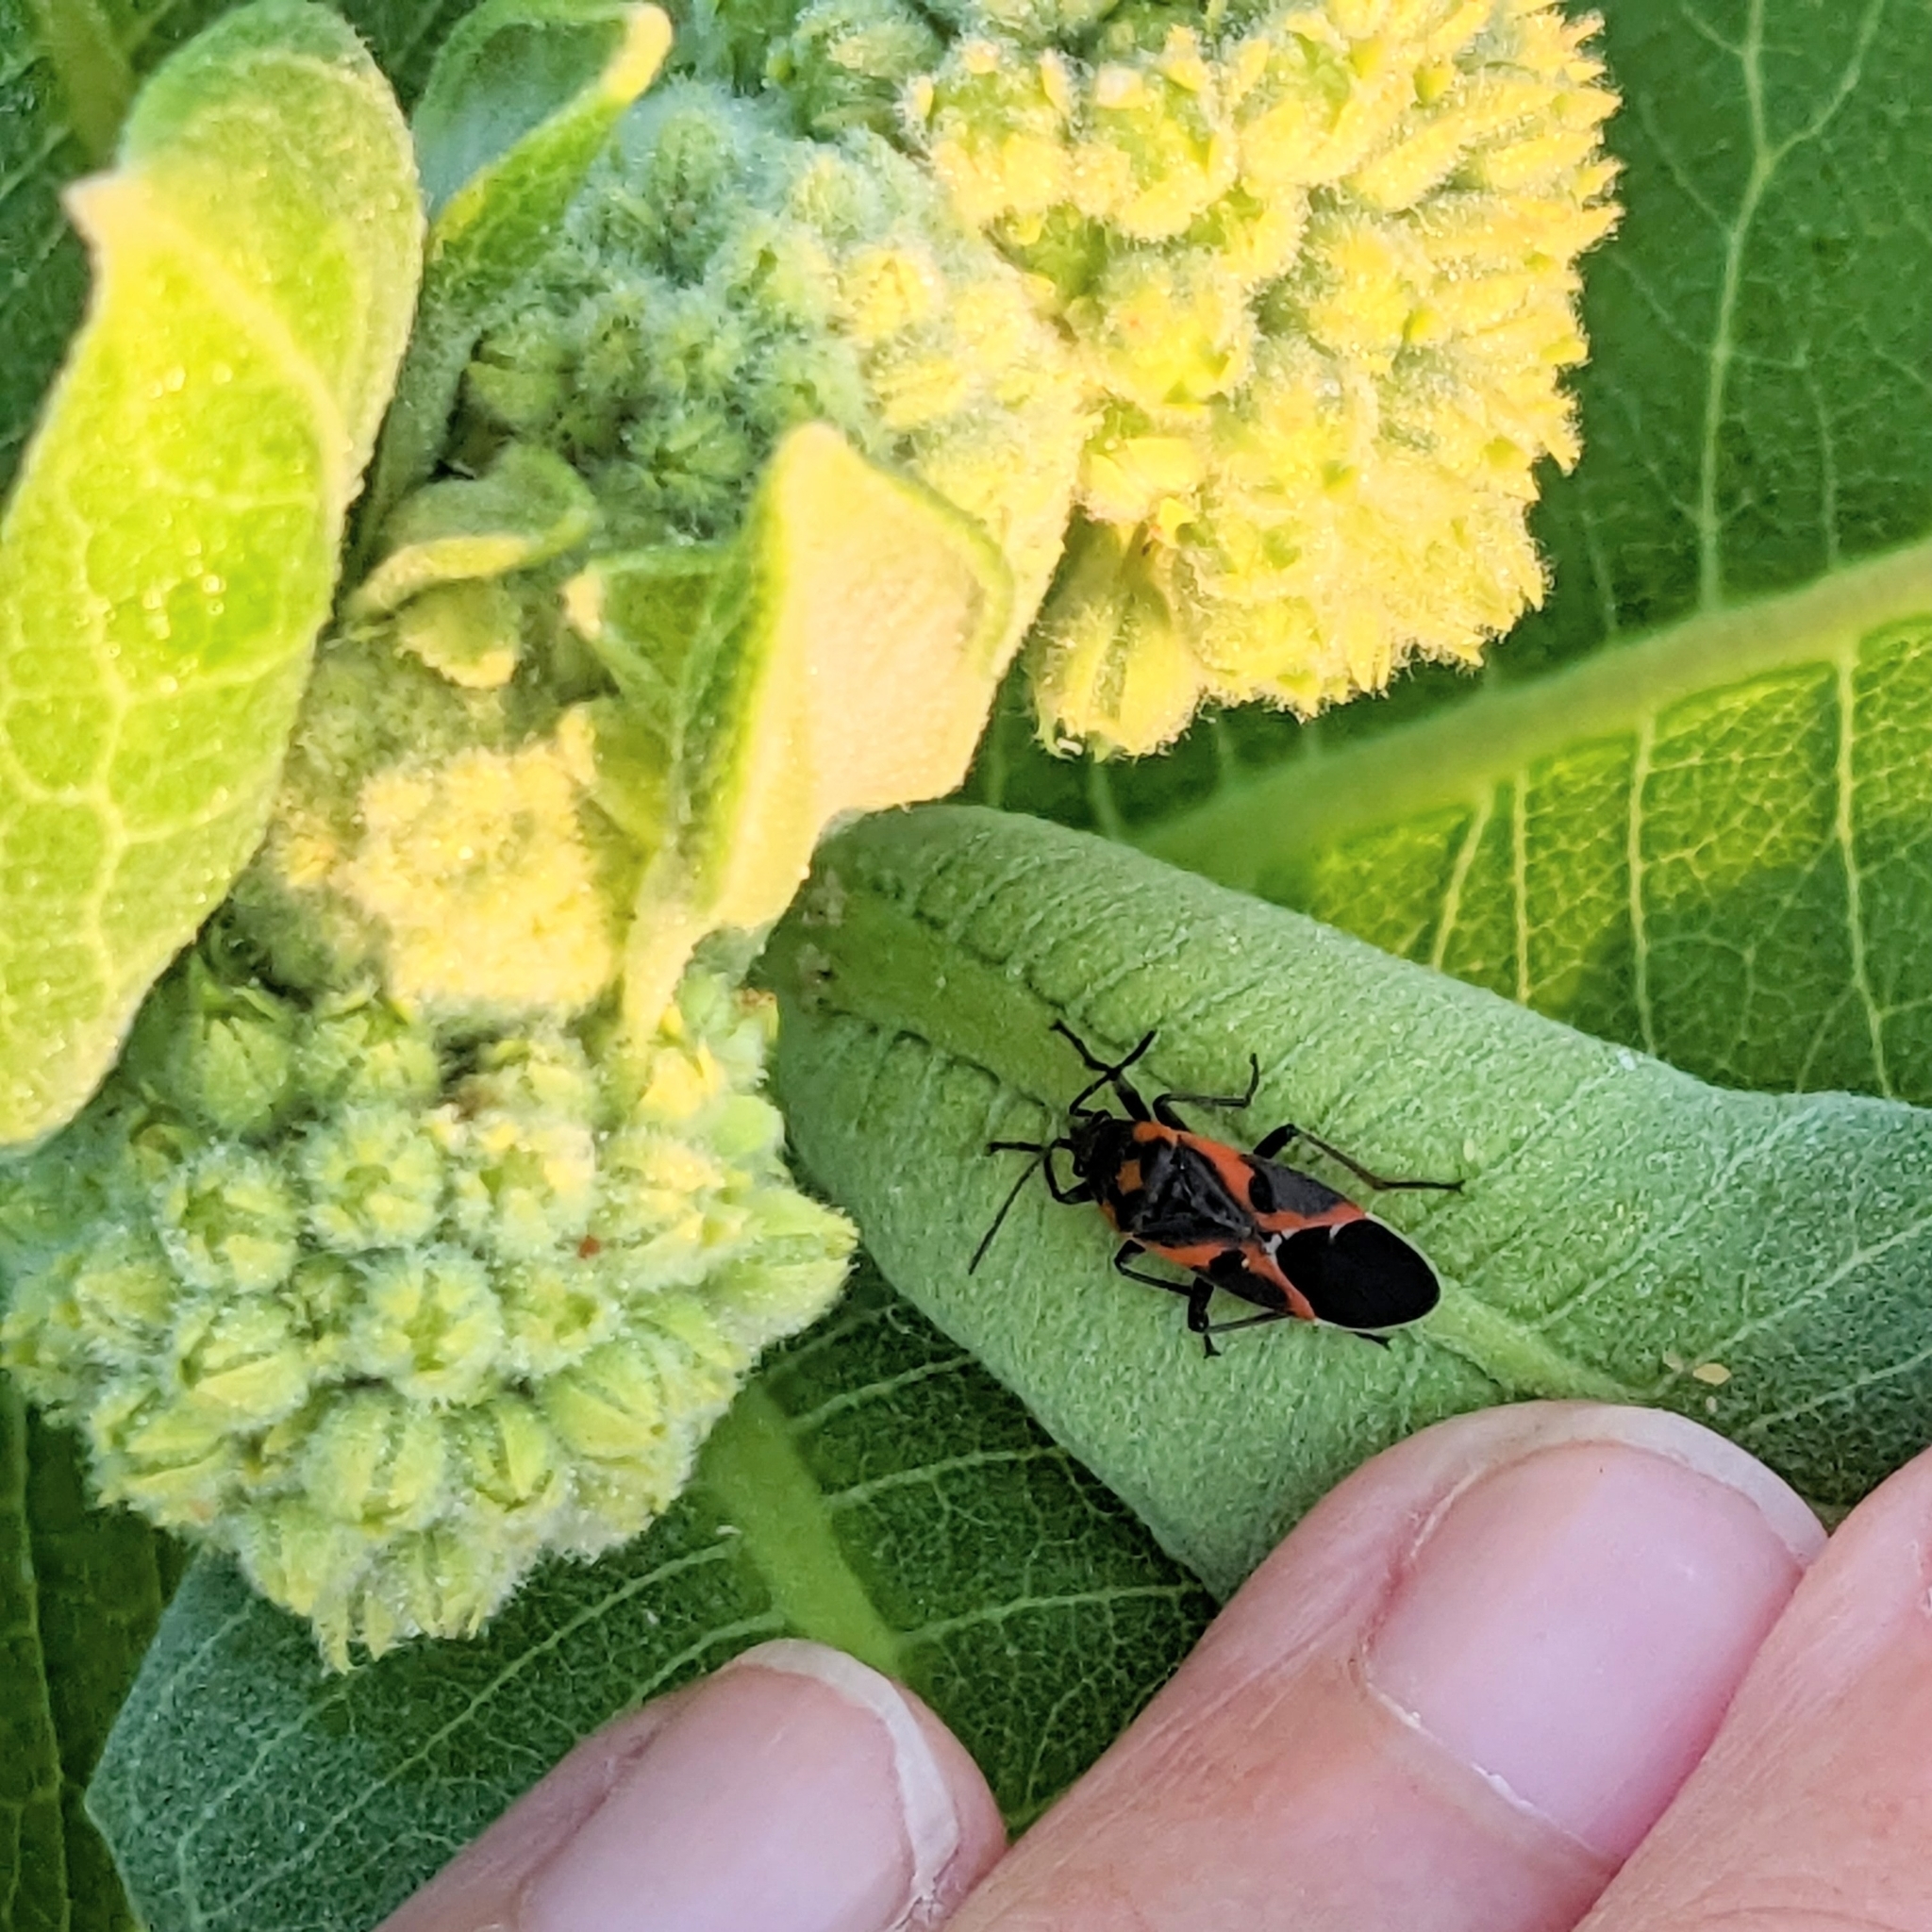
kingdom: Animalia
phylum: Arthropoda
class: Insecta
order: Hemiptera
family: Lygaeidae
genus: Lygaeus
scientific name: Lygaeus kalmii
